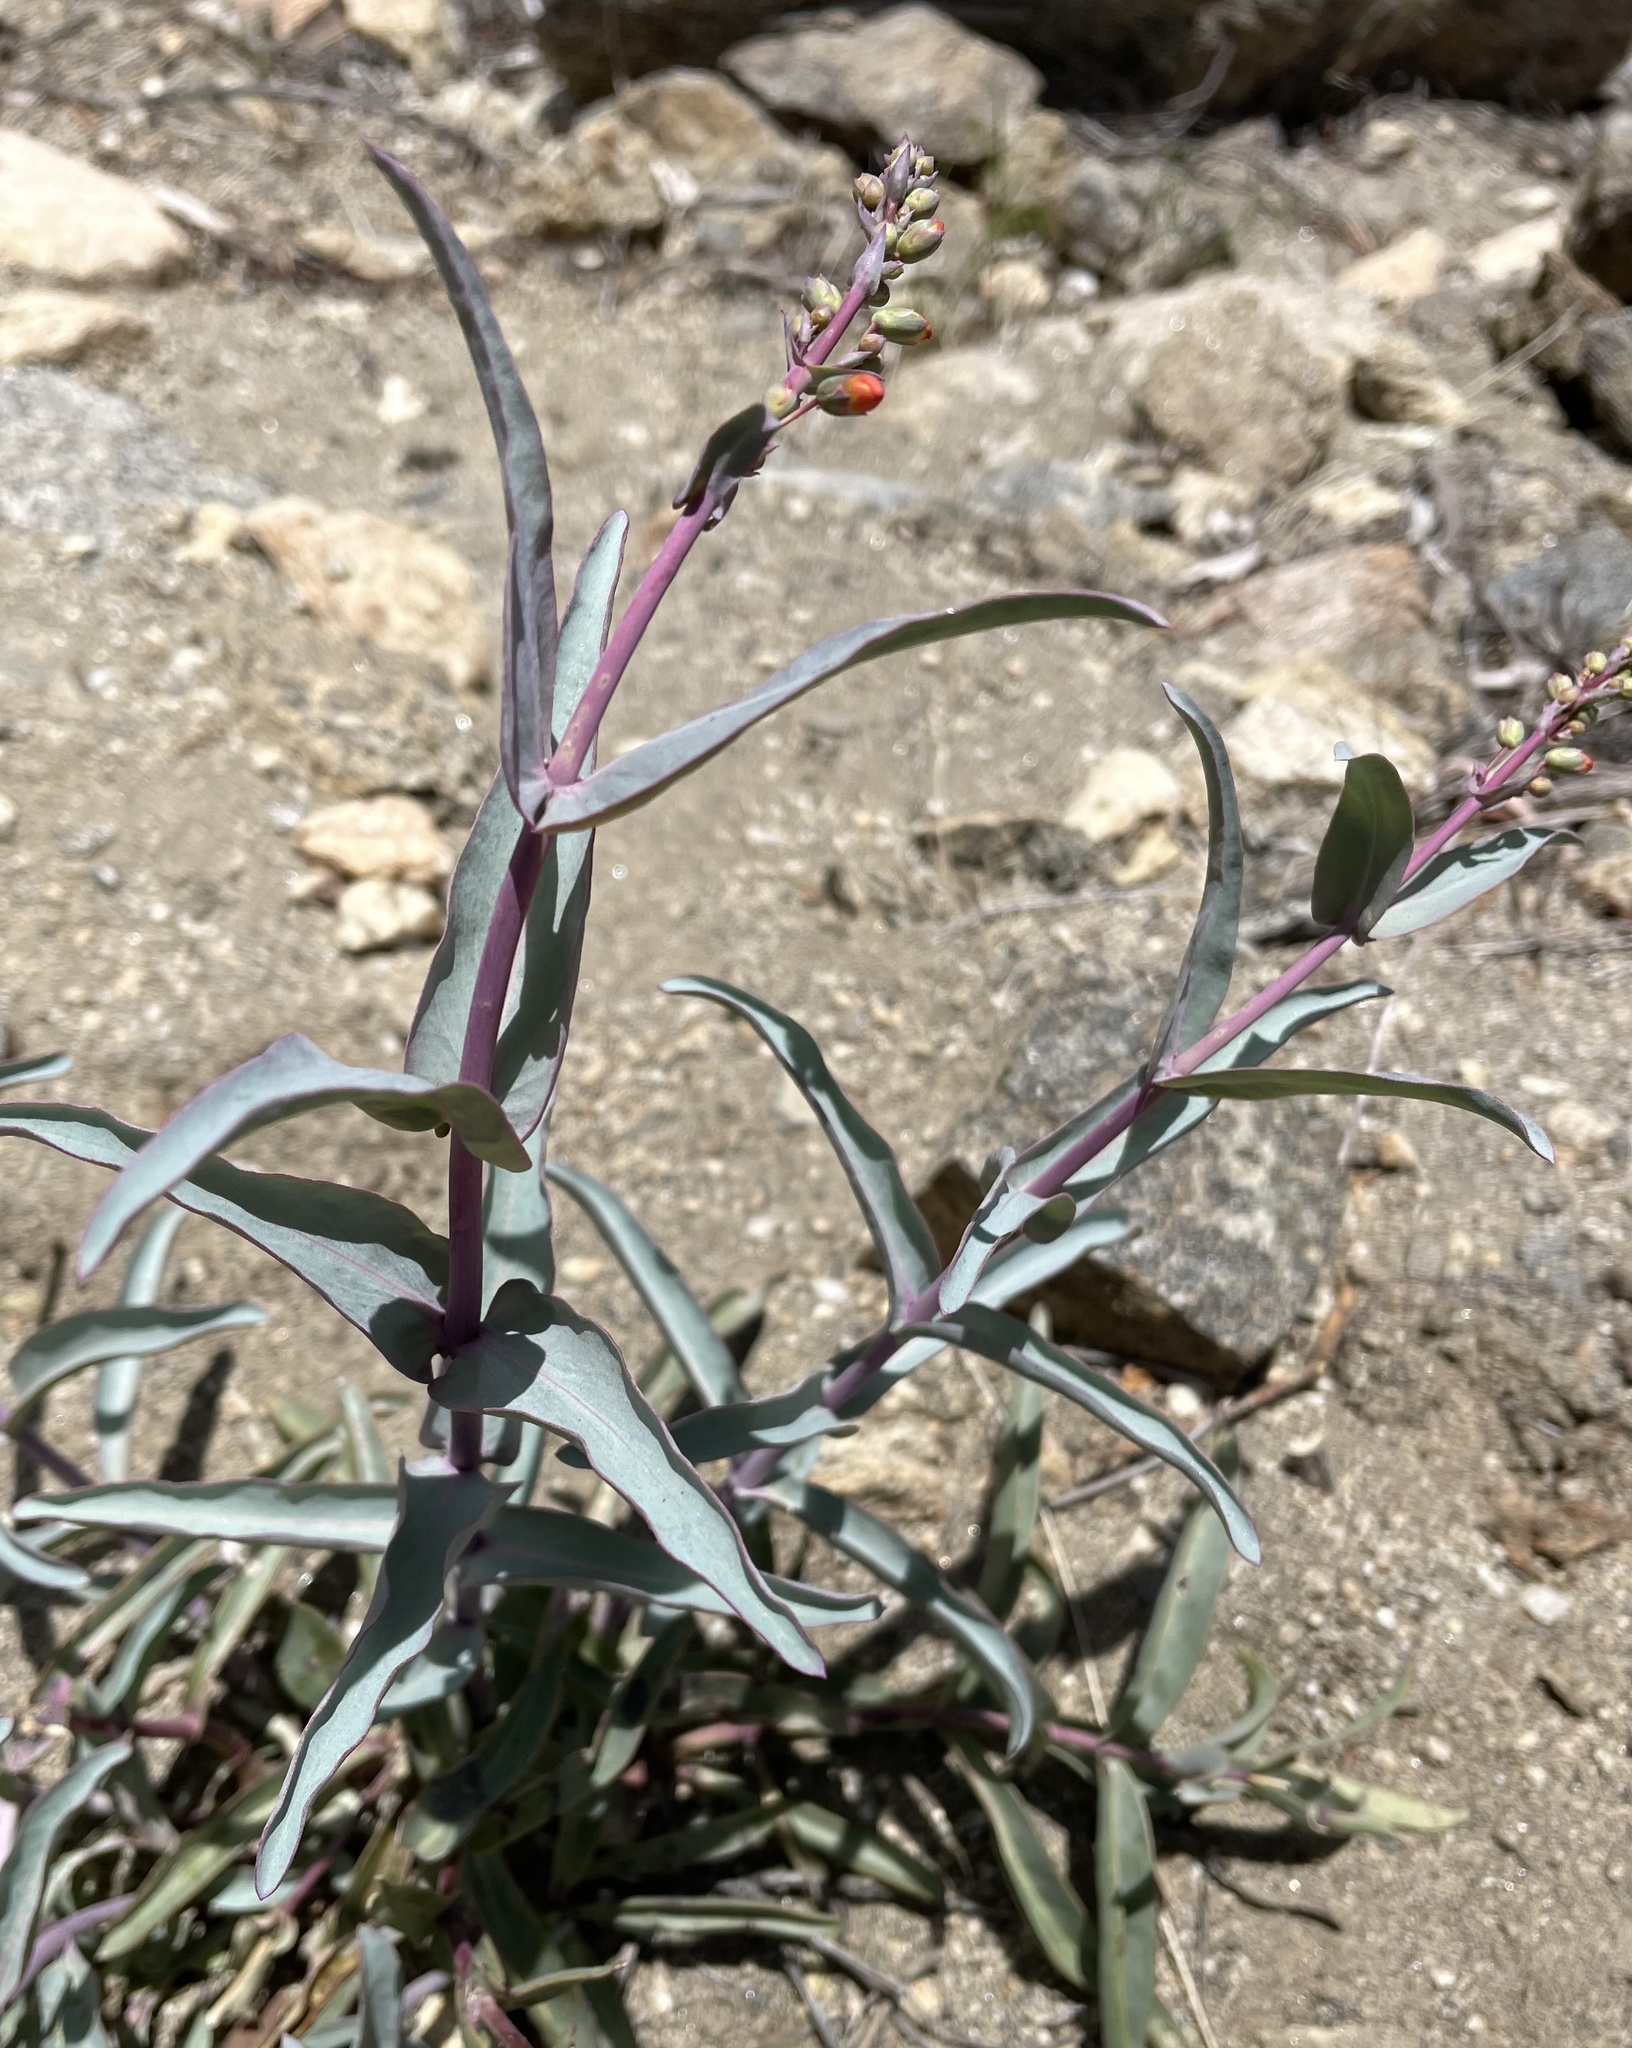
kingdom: Plantae
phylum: Tracheophyta
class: Magnoliopsida
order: Lamiales
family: Plantaginaceae
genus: Penstemon
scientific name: Penstemon centranthifolius
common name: Scarlet bugler
